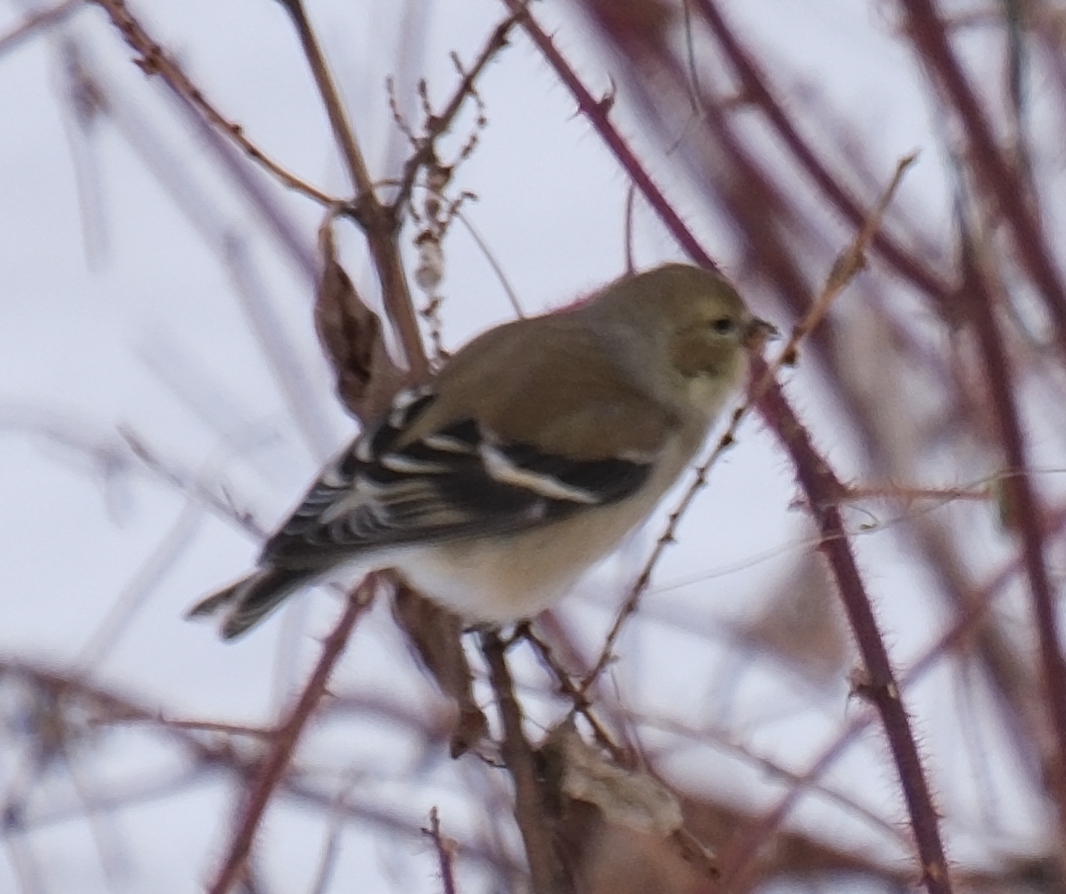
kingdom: Animalia
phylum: Chordata
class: Aves
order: Passeriformes
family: Fringillidae
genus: Spinus
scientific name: Spinus tristis
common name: American goldfinch
